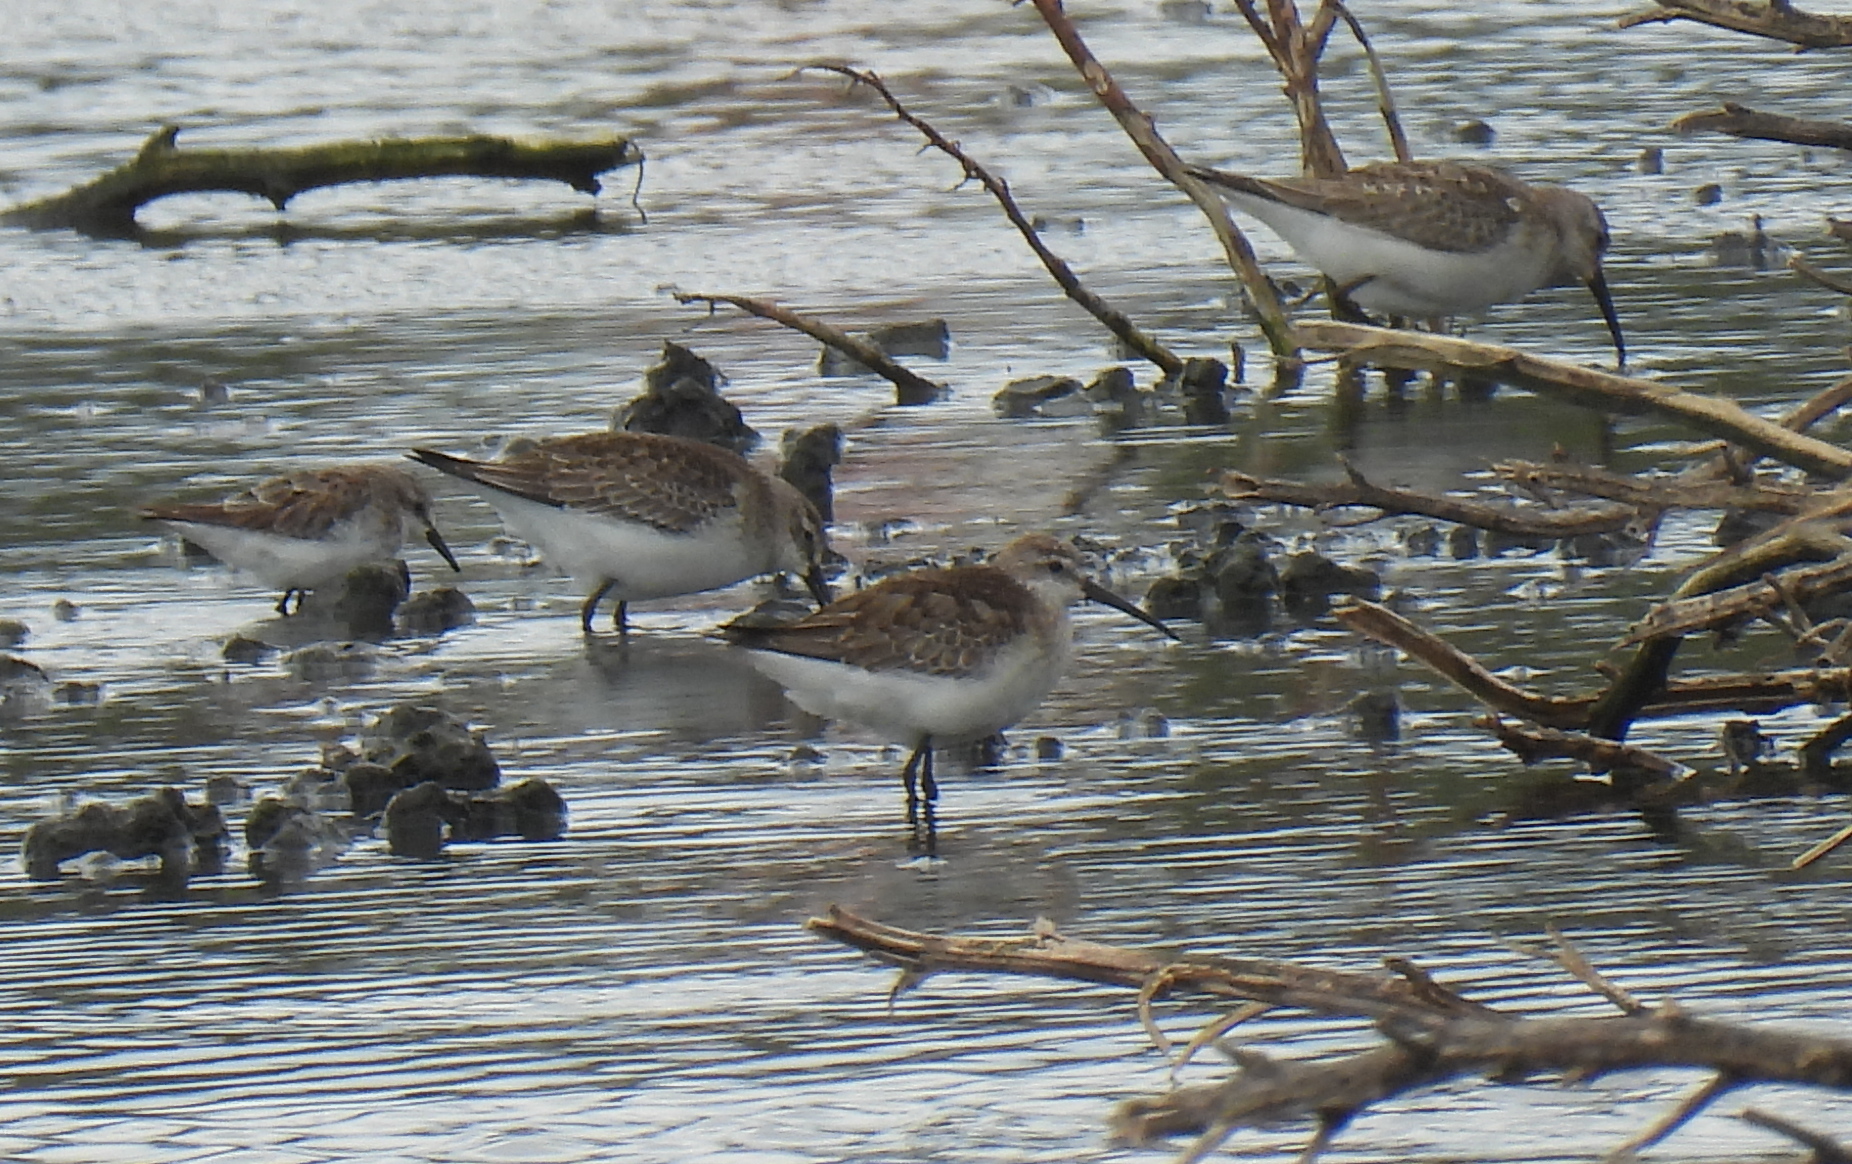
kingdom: Animalia
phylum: Chordata
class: Aves
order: Charadriiformes
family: Scolopacidae
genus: Calidris
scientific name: Calidris ferruginea
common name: Curlew sandpiper
